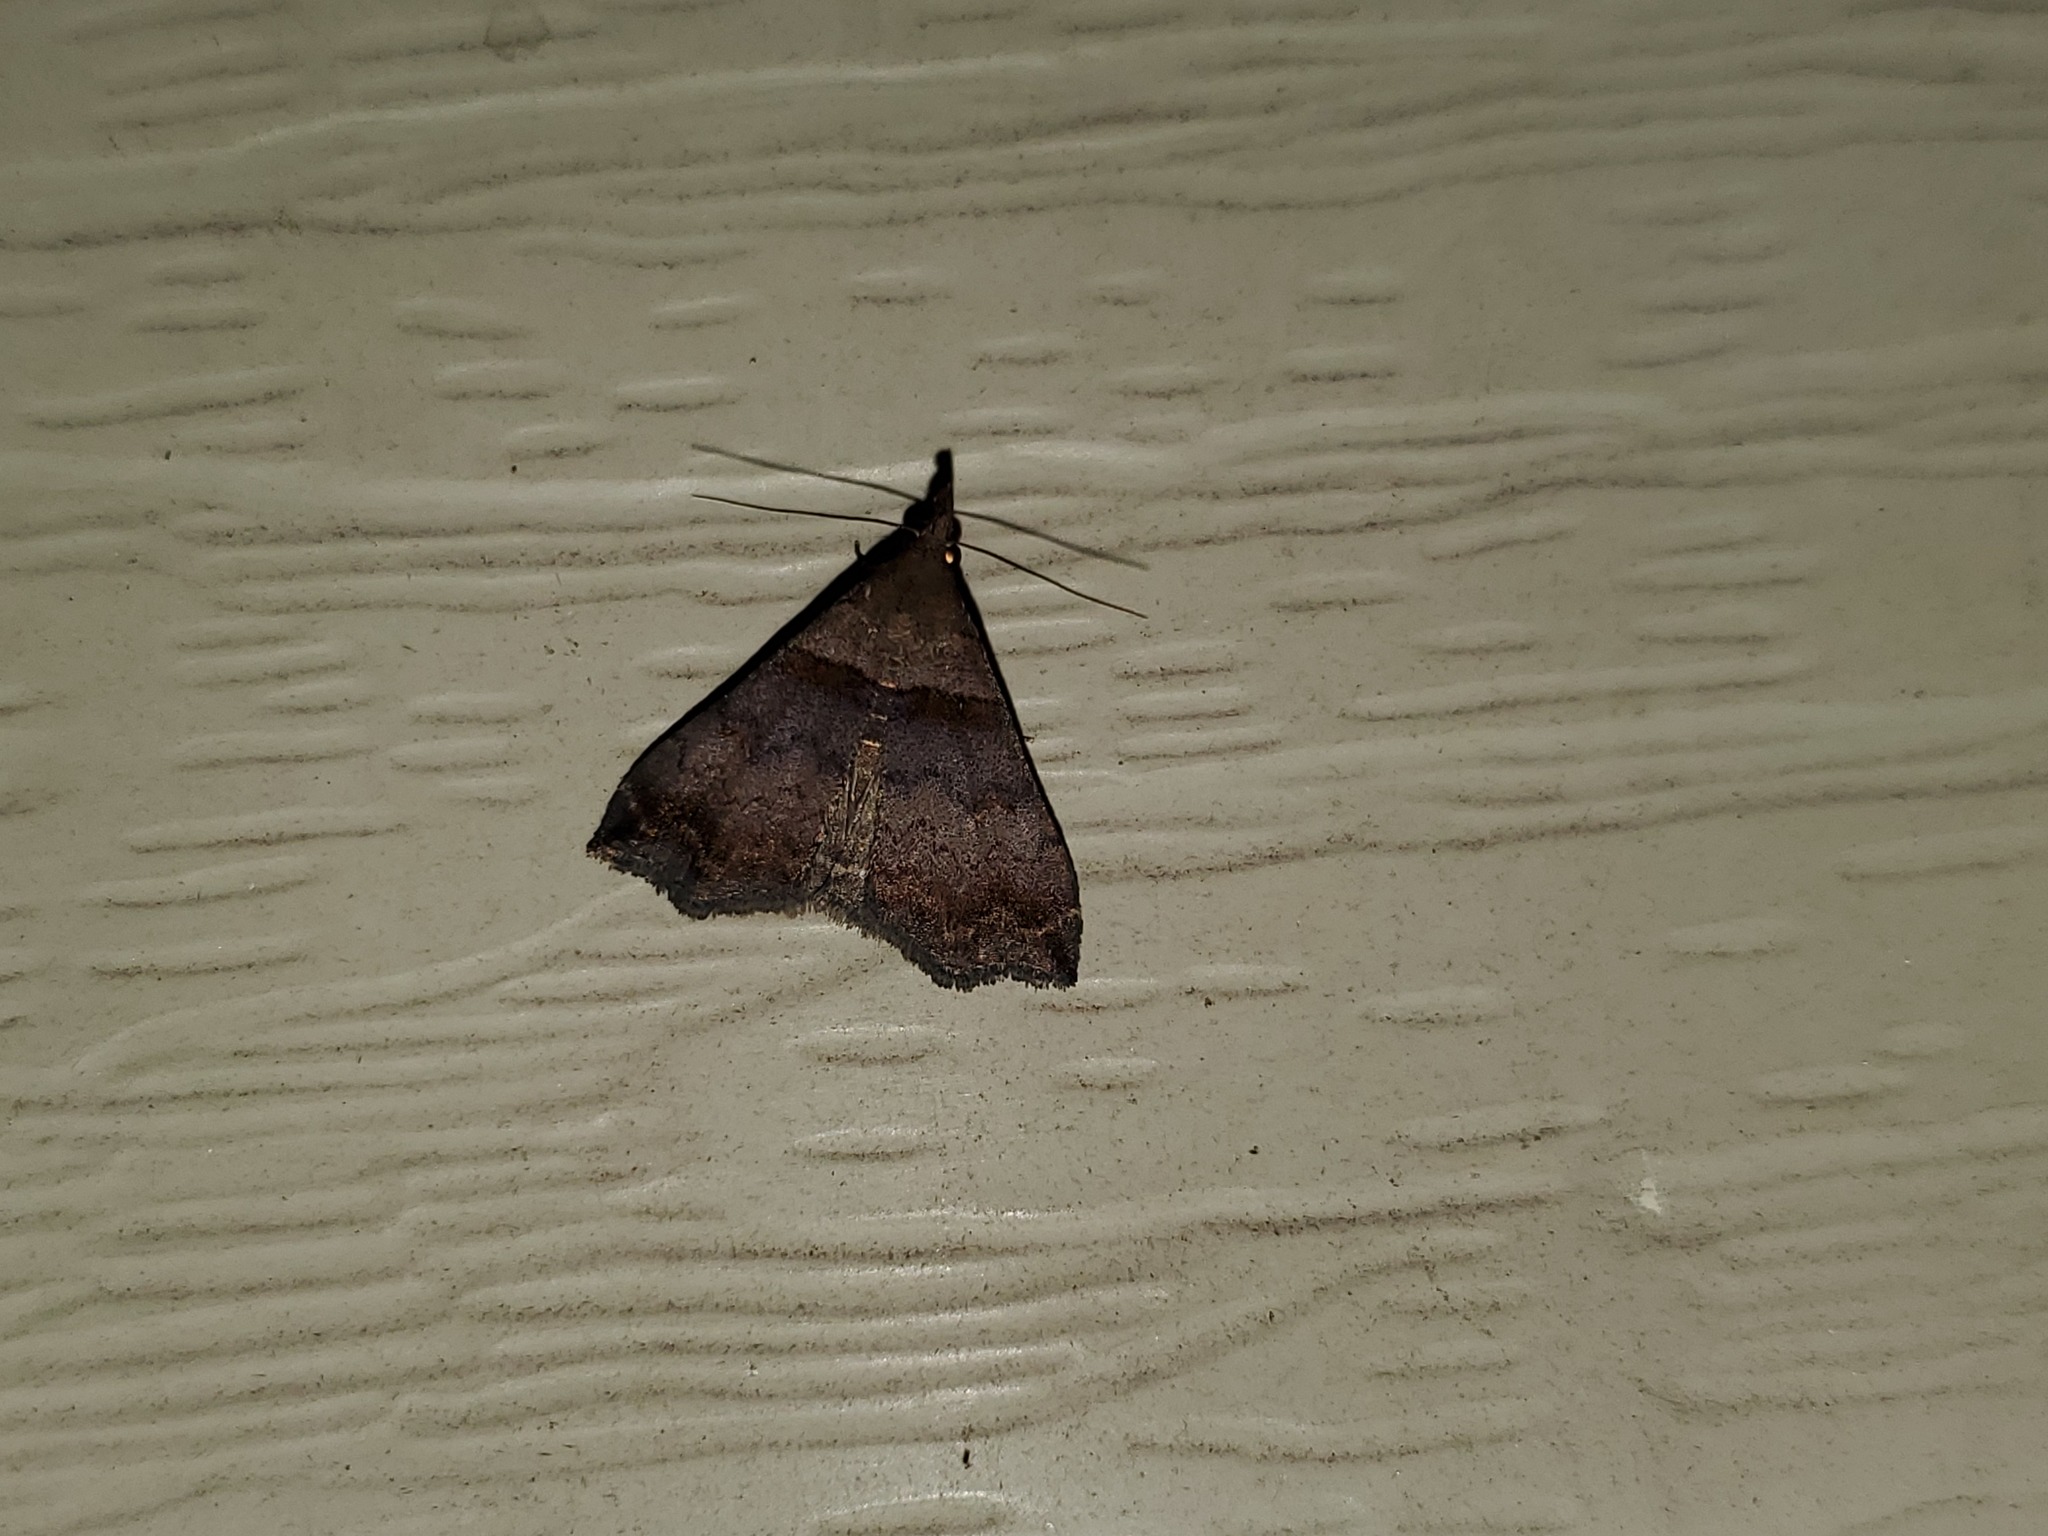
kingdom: Animalia
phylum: Arthropoda
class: Insecta
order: Lepidoptera
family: Erebidae
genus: Lascoria
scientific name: Lascoria ambigualis
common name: Ambiguous moth
